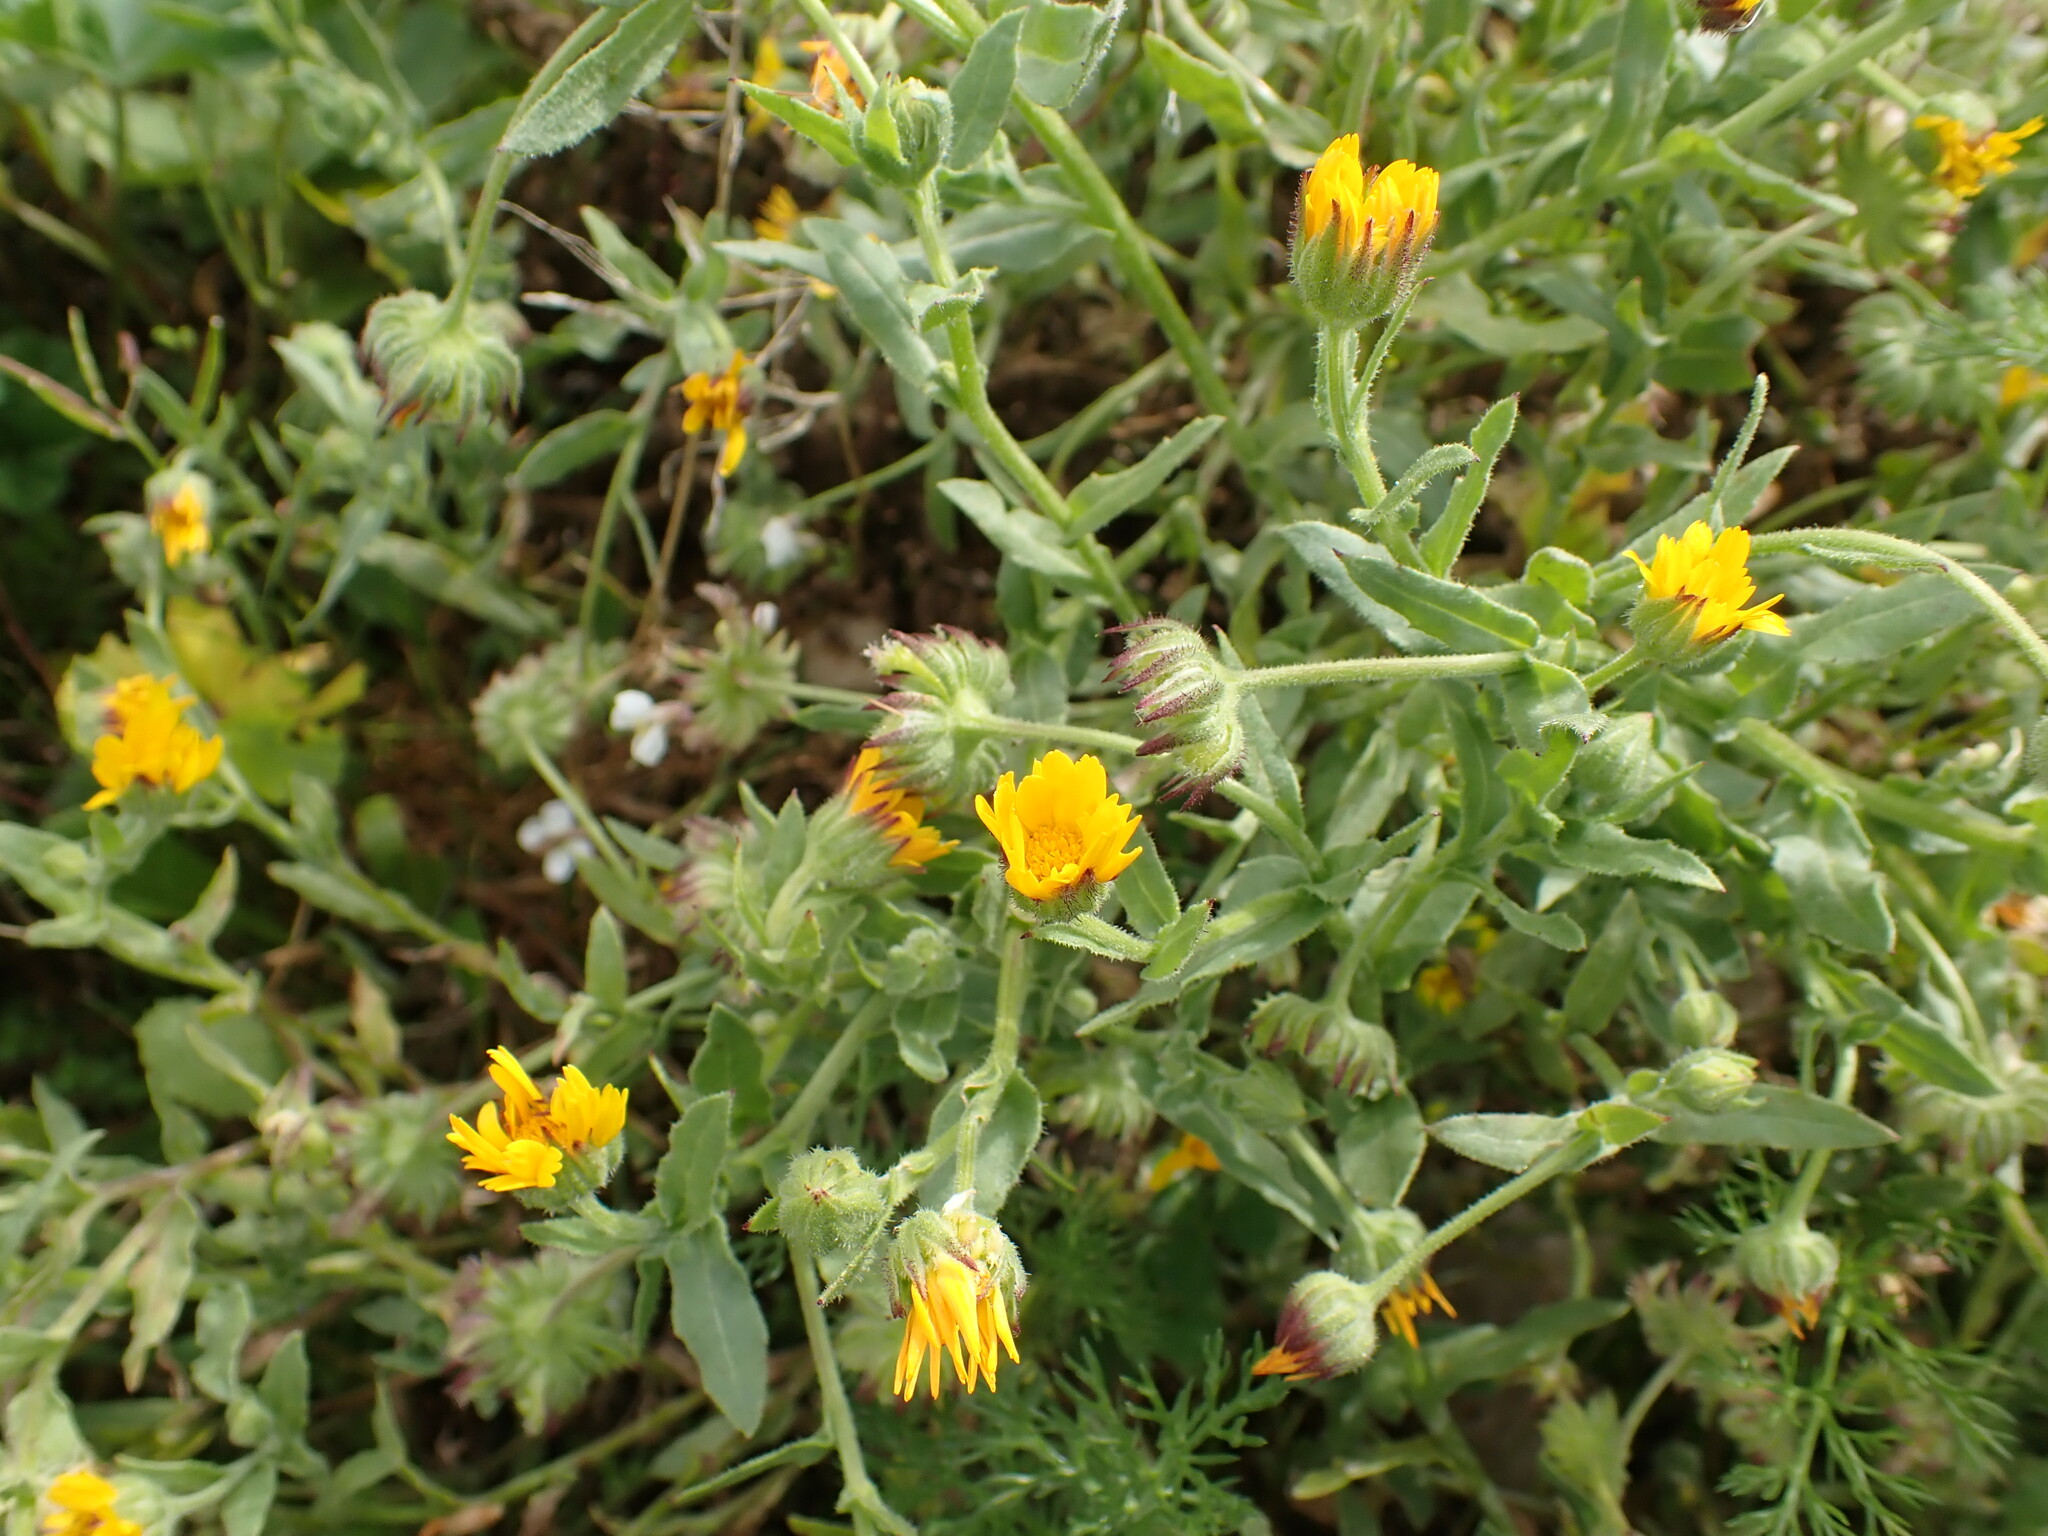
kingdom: Plantae
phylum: Tracheophyta
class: Magnoliopsida
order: Asterales
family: Asteraceae
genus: Calendula
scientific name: Calendula arvensis
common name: Field marigold
